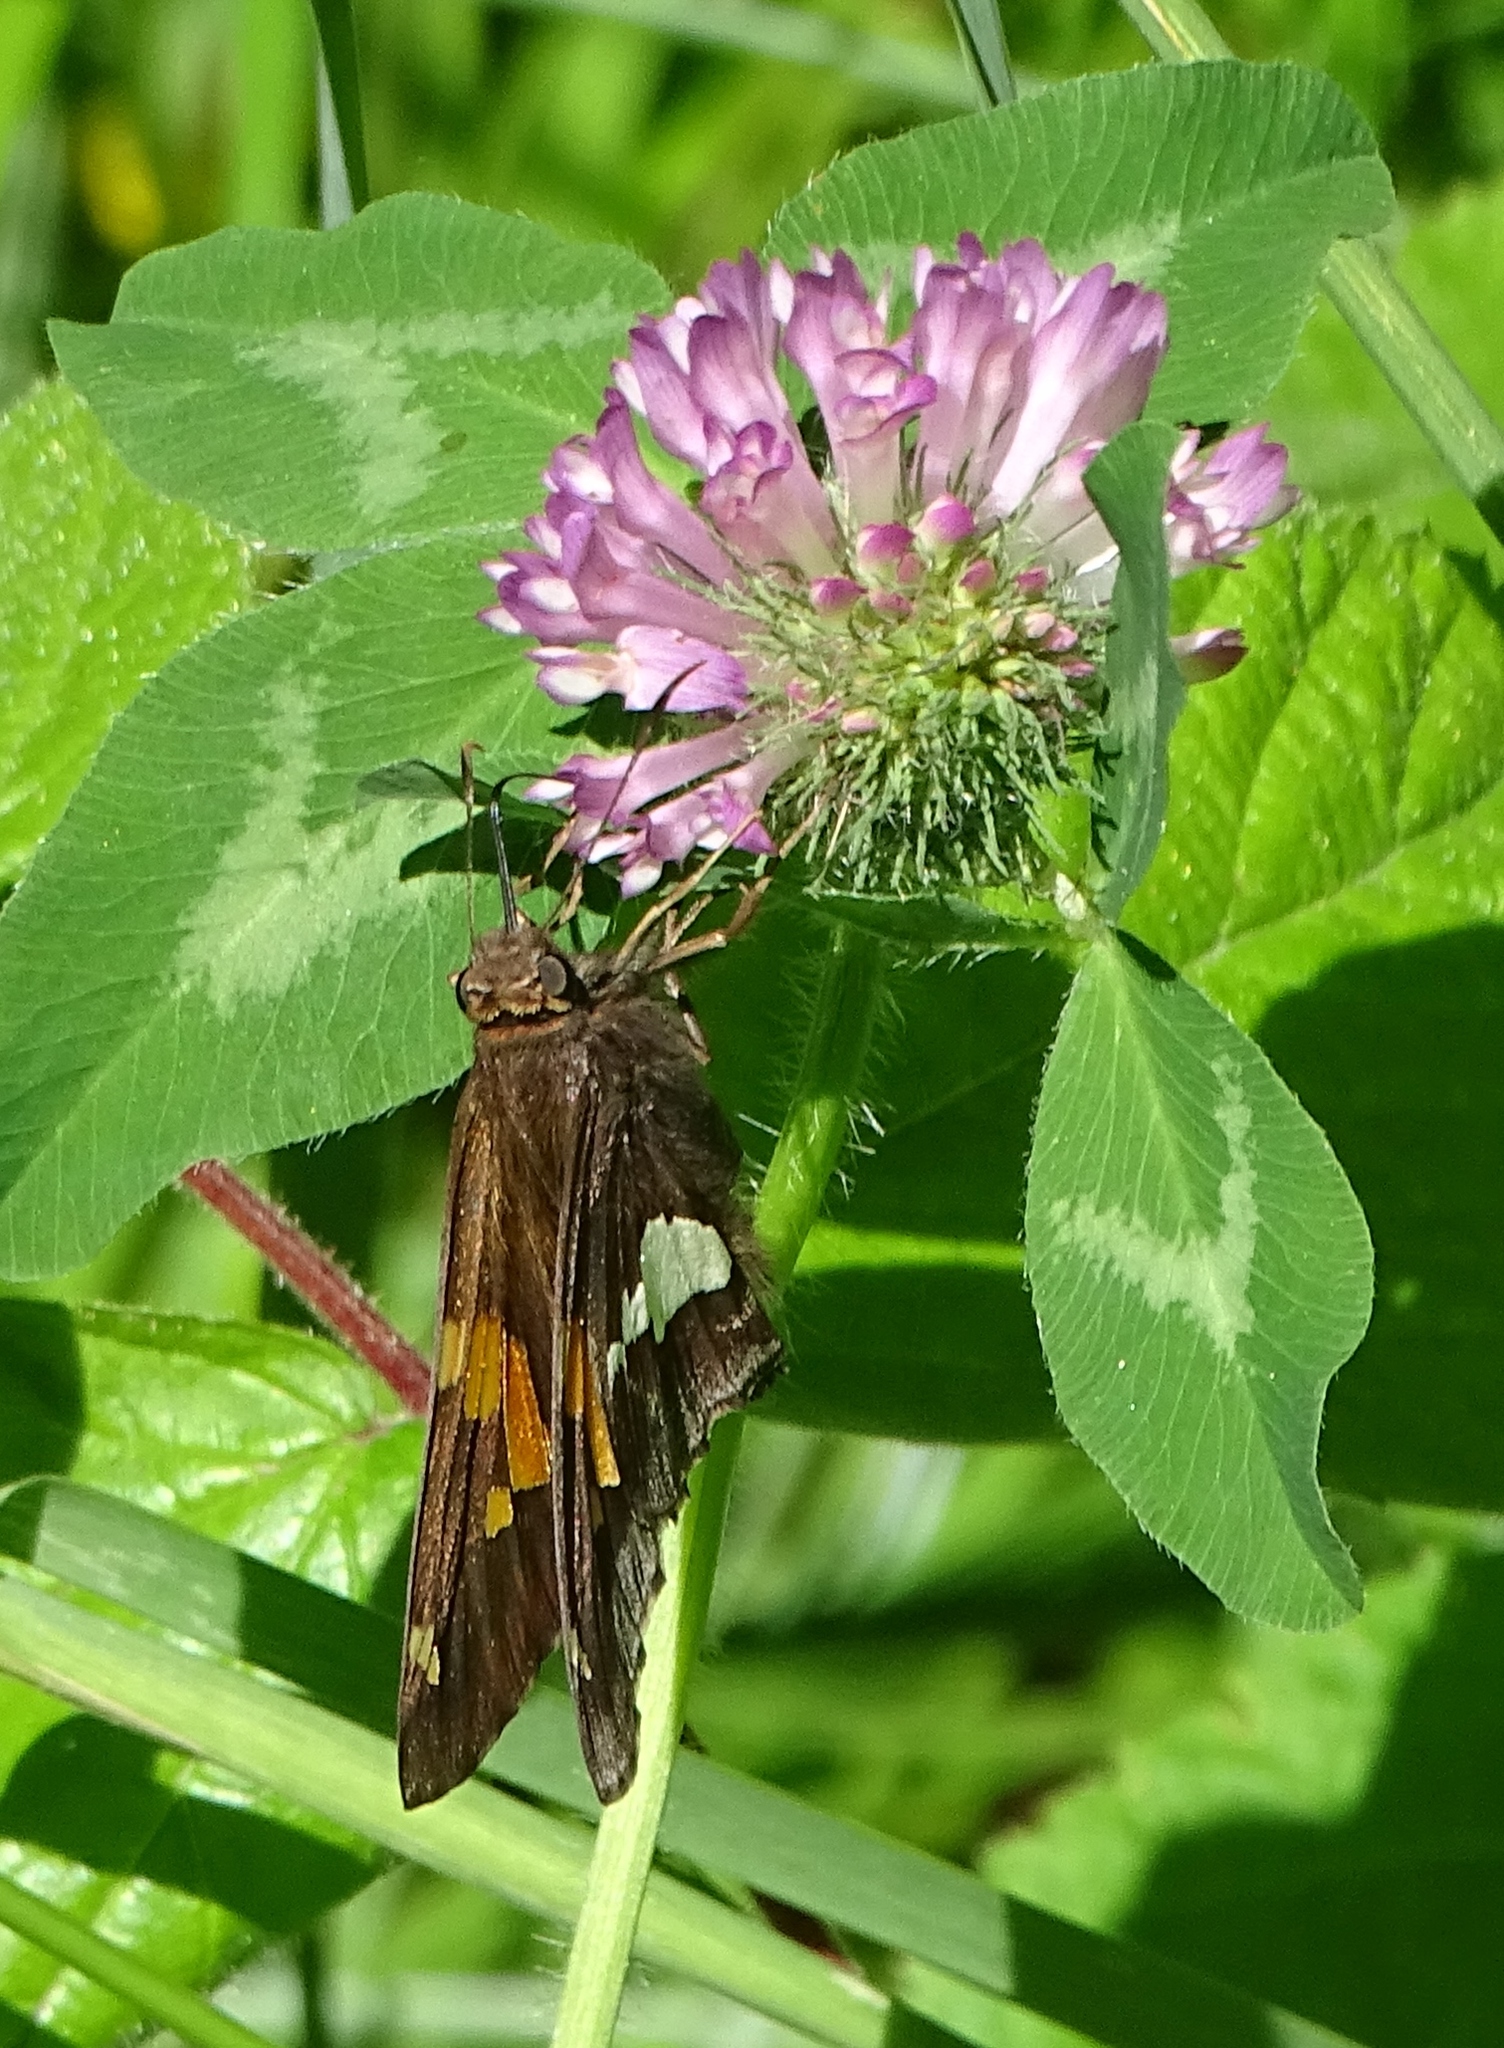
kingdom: Animalia
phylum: Arthropoda
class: Insecta
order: Lepidoptera
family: Hesperiidae
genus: Epargyreus
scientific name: Epargyreus clarus
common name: Silver-spotted skipper
